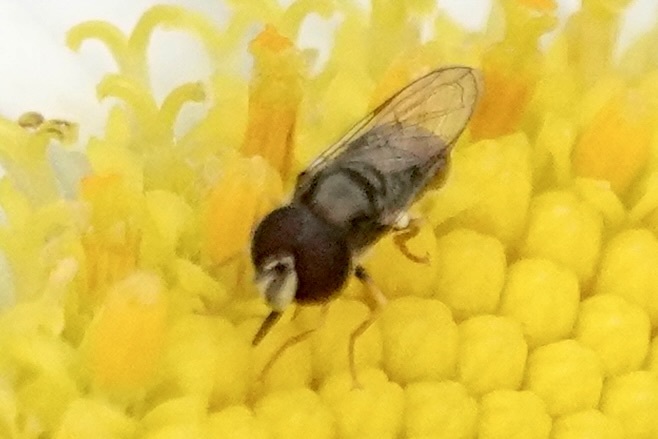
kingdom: Animalia
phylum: Arthropoda
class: Insecta
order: Diptera
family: Syrphidae
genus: Paragus
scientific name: Paragus haemorrhous
